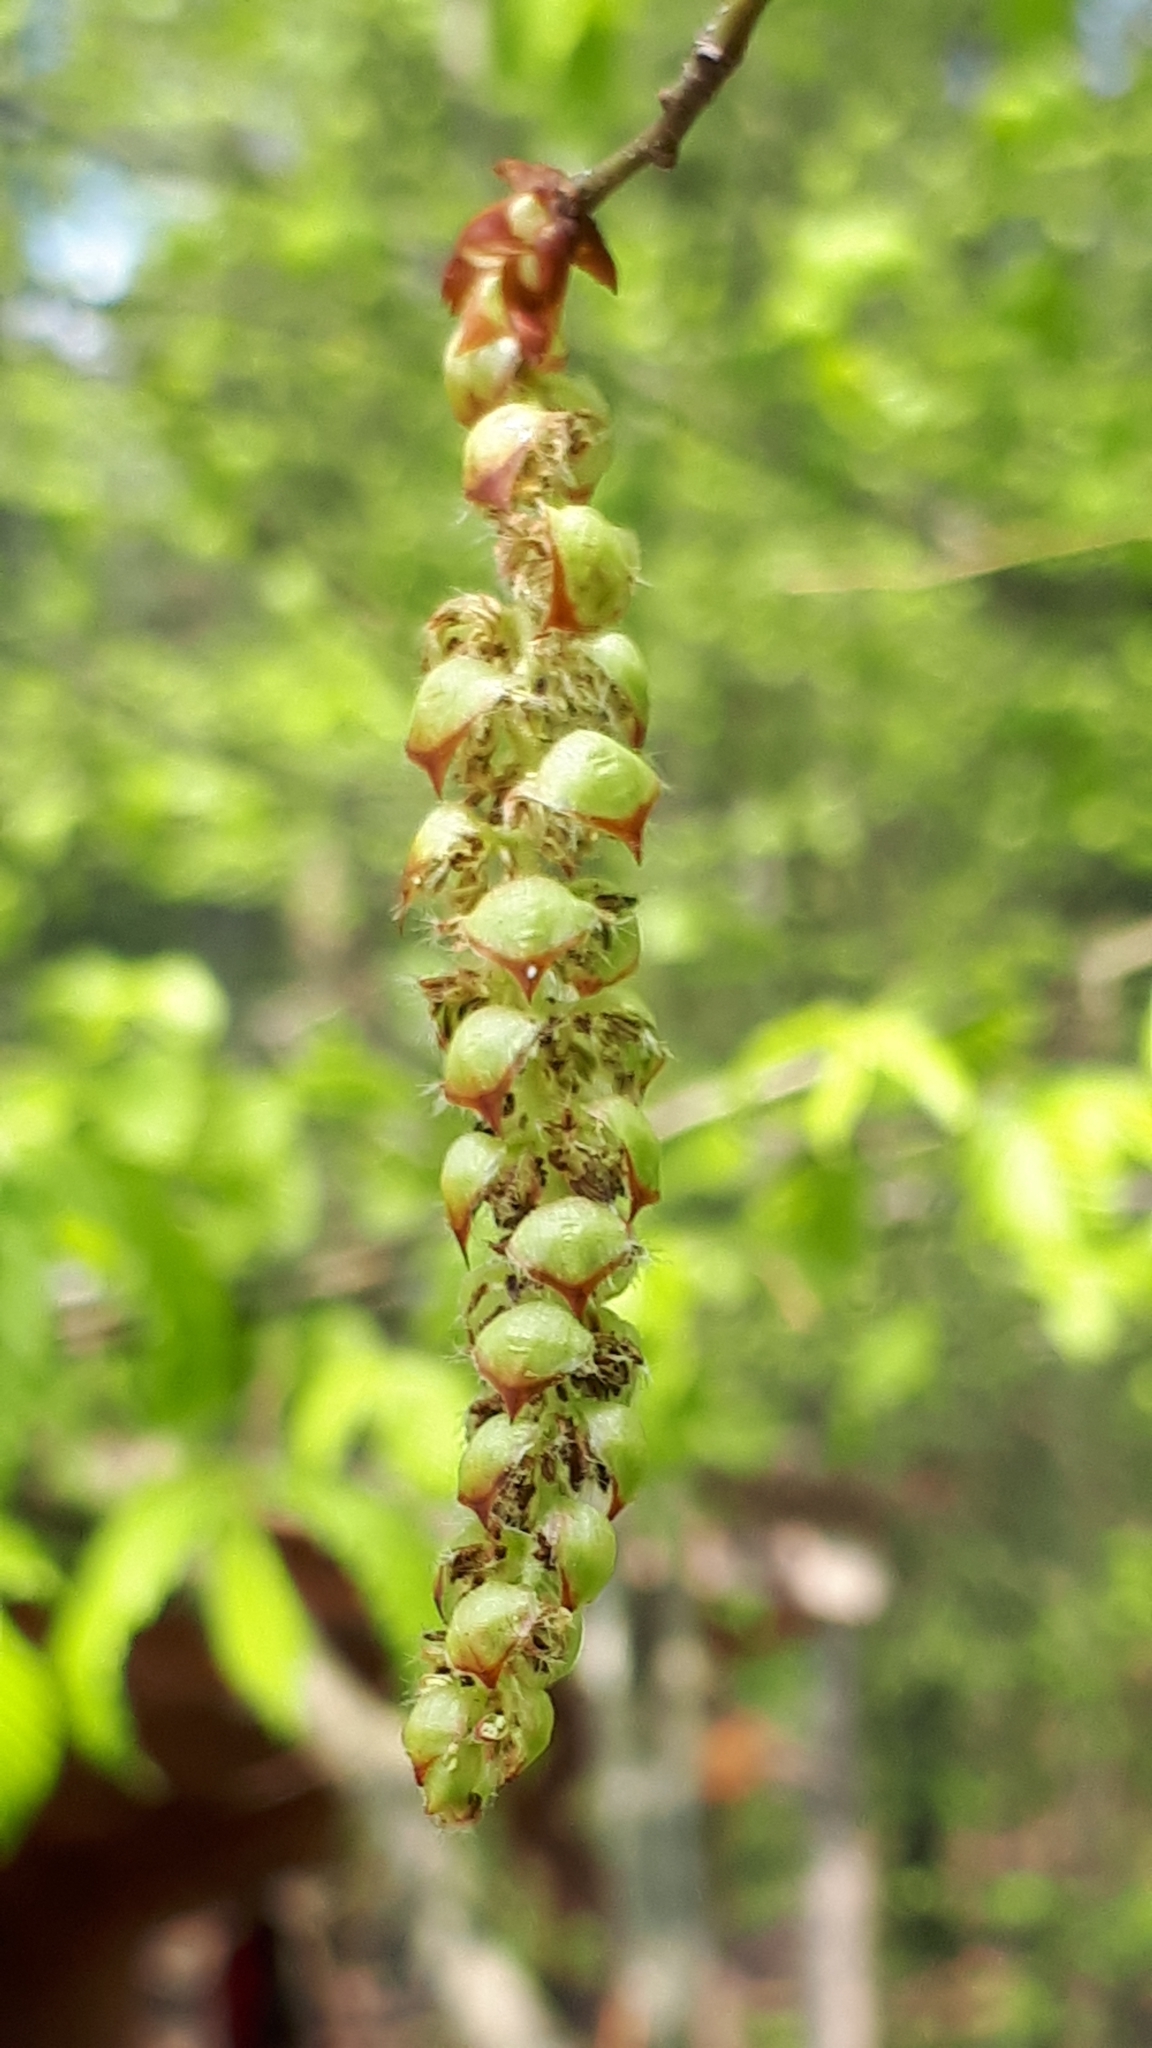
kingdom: Plantae
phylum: Tracheophyta
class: Magnoliopsida
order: Fagales
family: Betulaceae
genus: Carpinus
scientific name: Carpinus betulus
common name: Hornbeam
